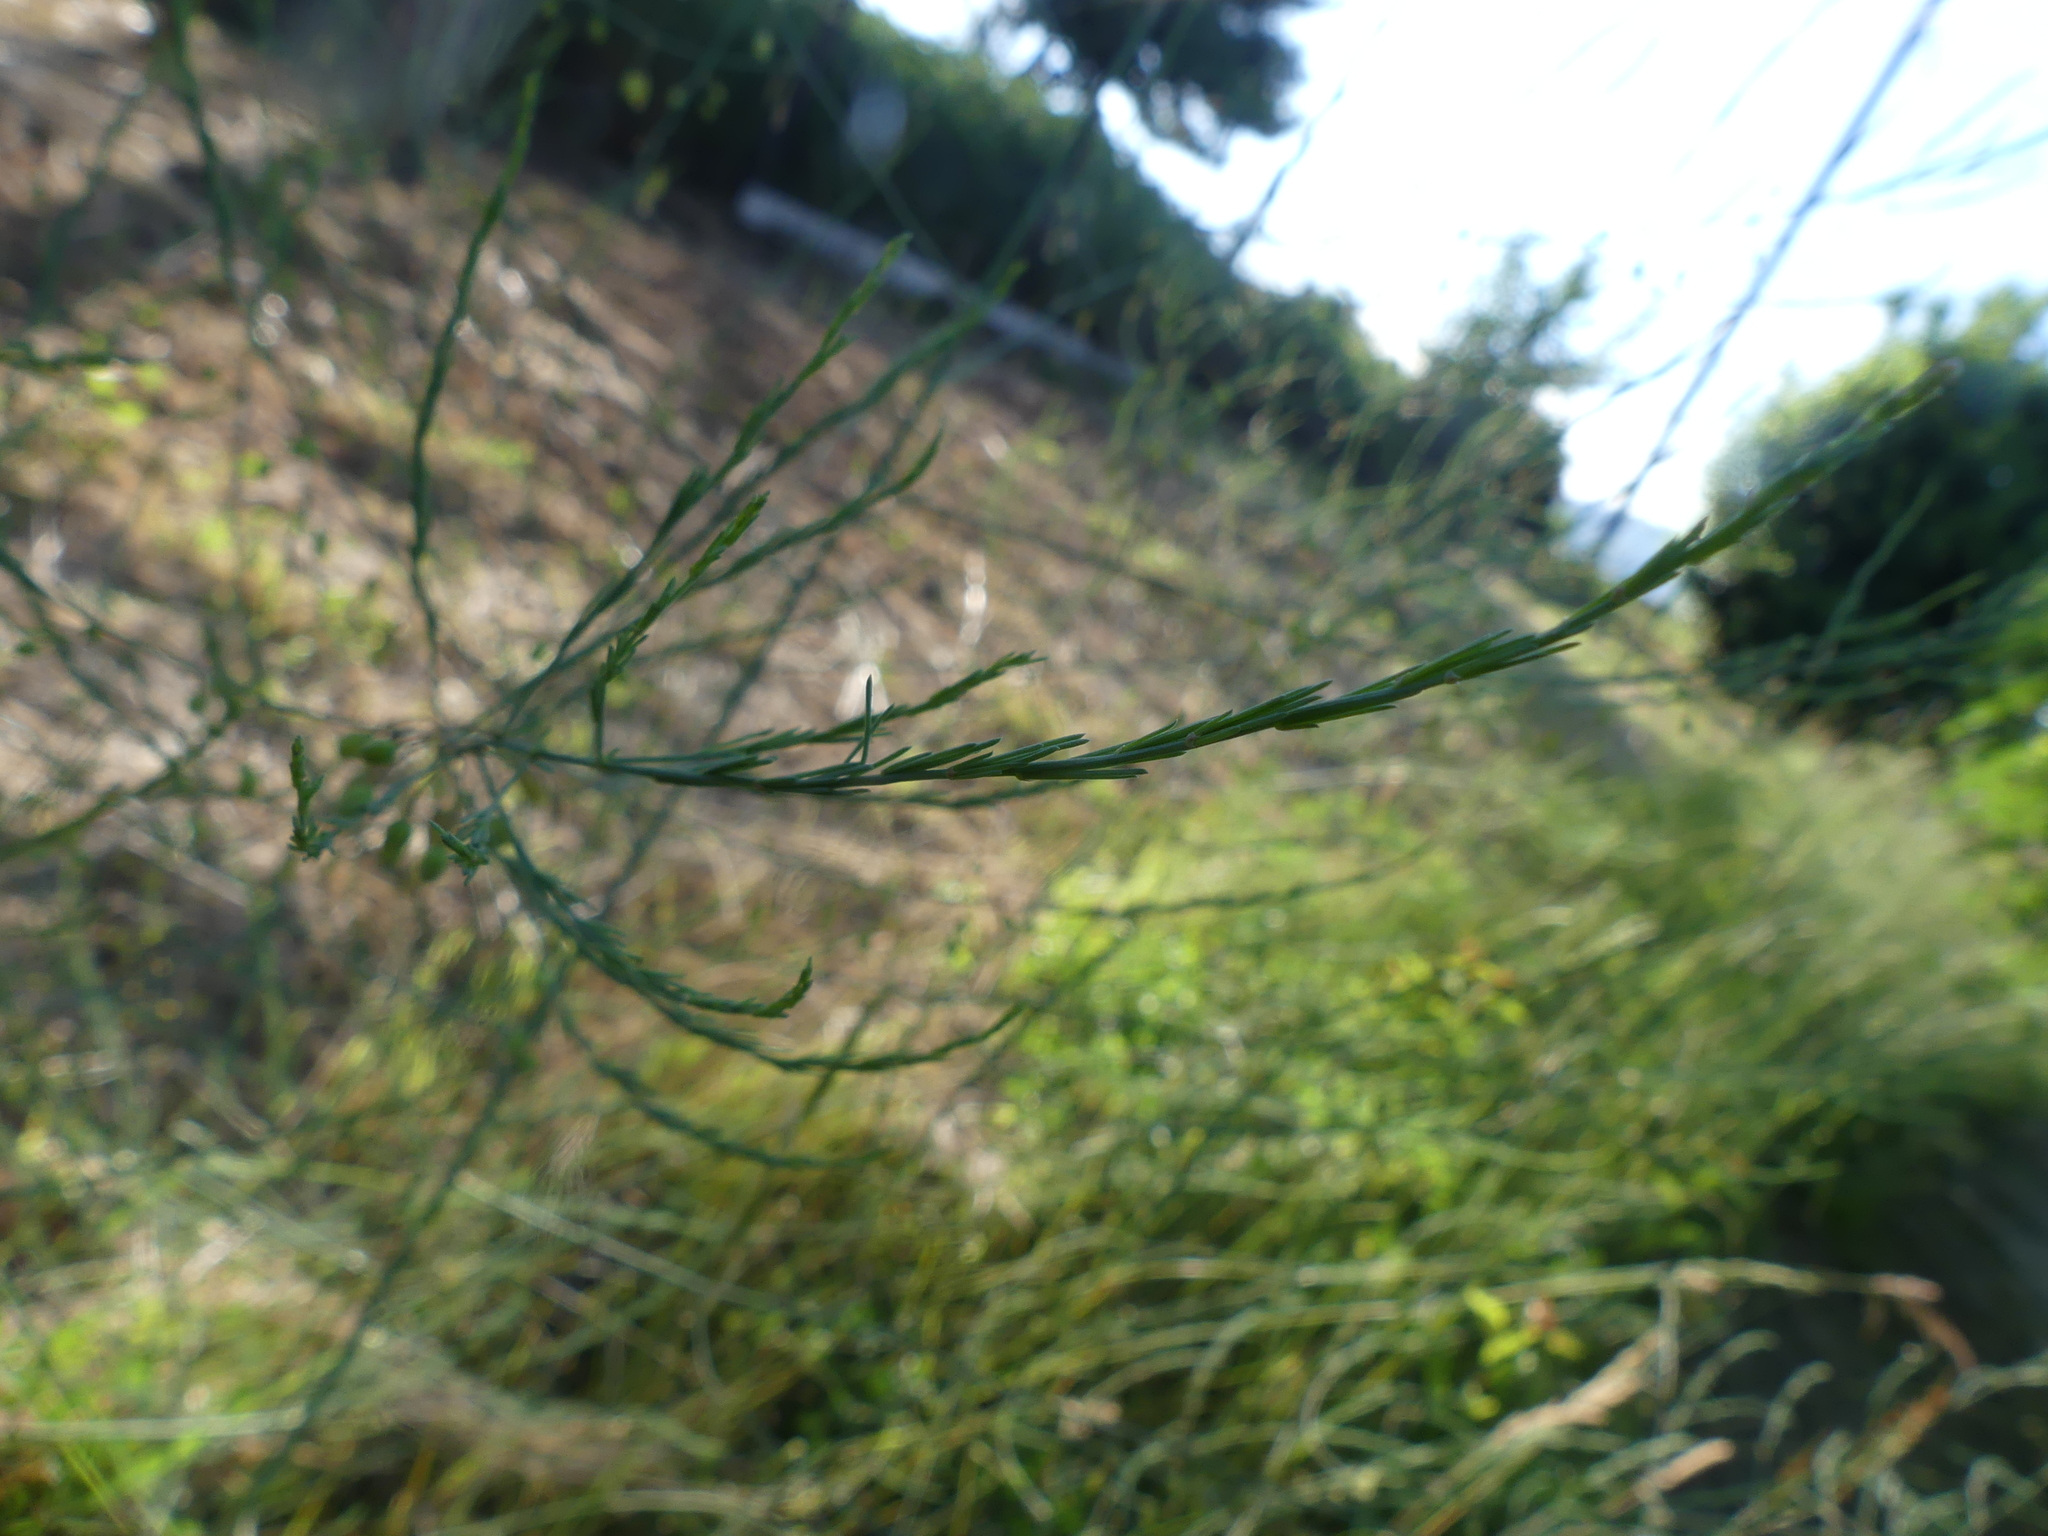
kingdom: Plantae
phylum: Tracheophyta
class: Liliopsida
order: Asparagales
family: Asparagaceae
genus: Asparagus
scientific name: Asparagus officinalis
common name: Garden asparagus
